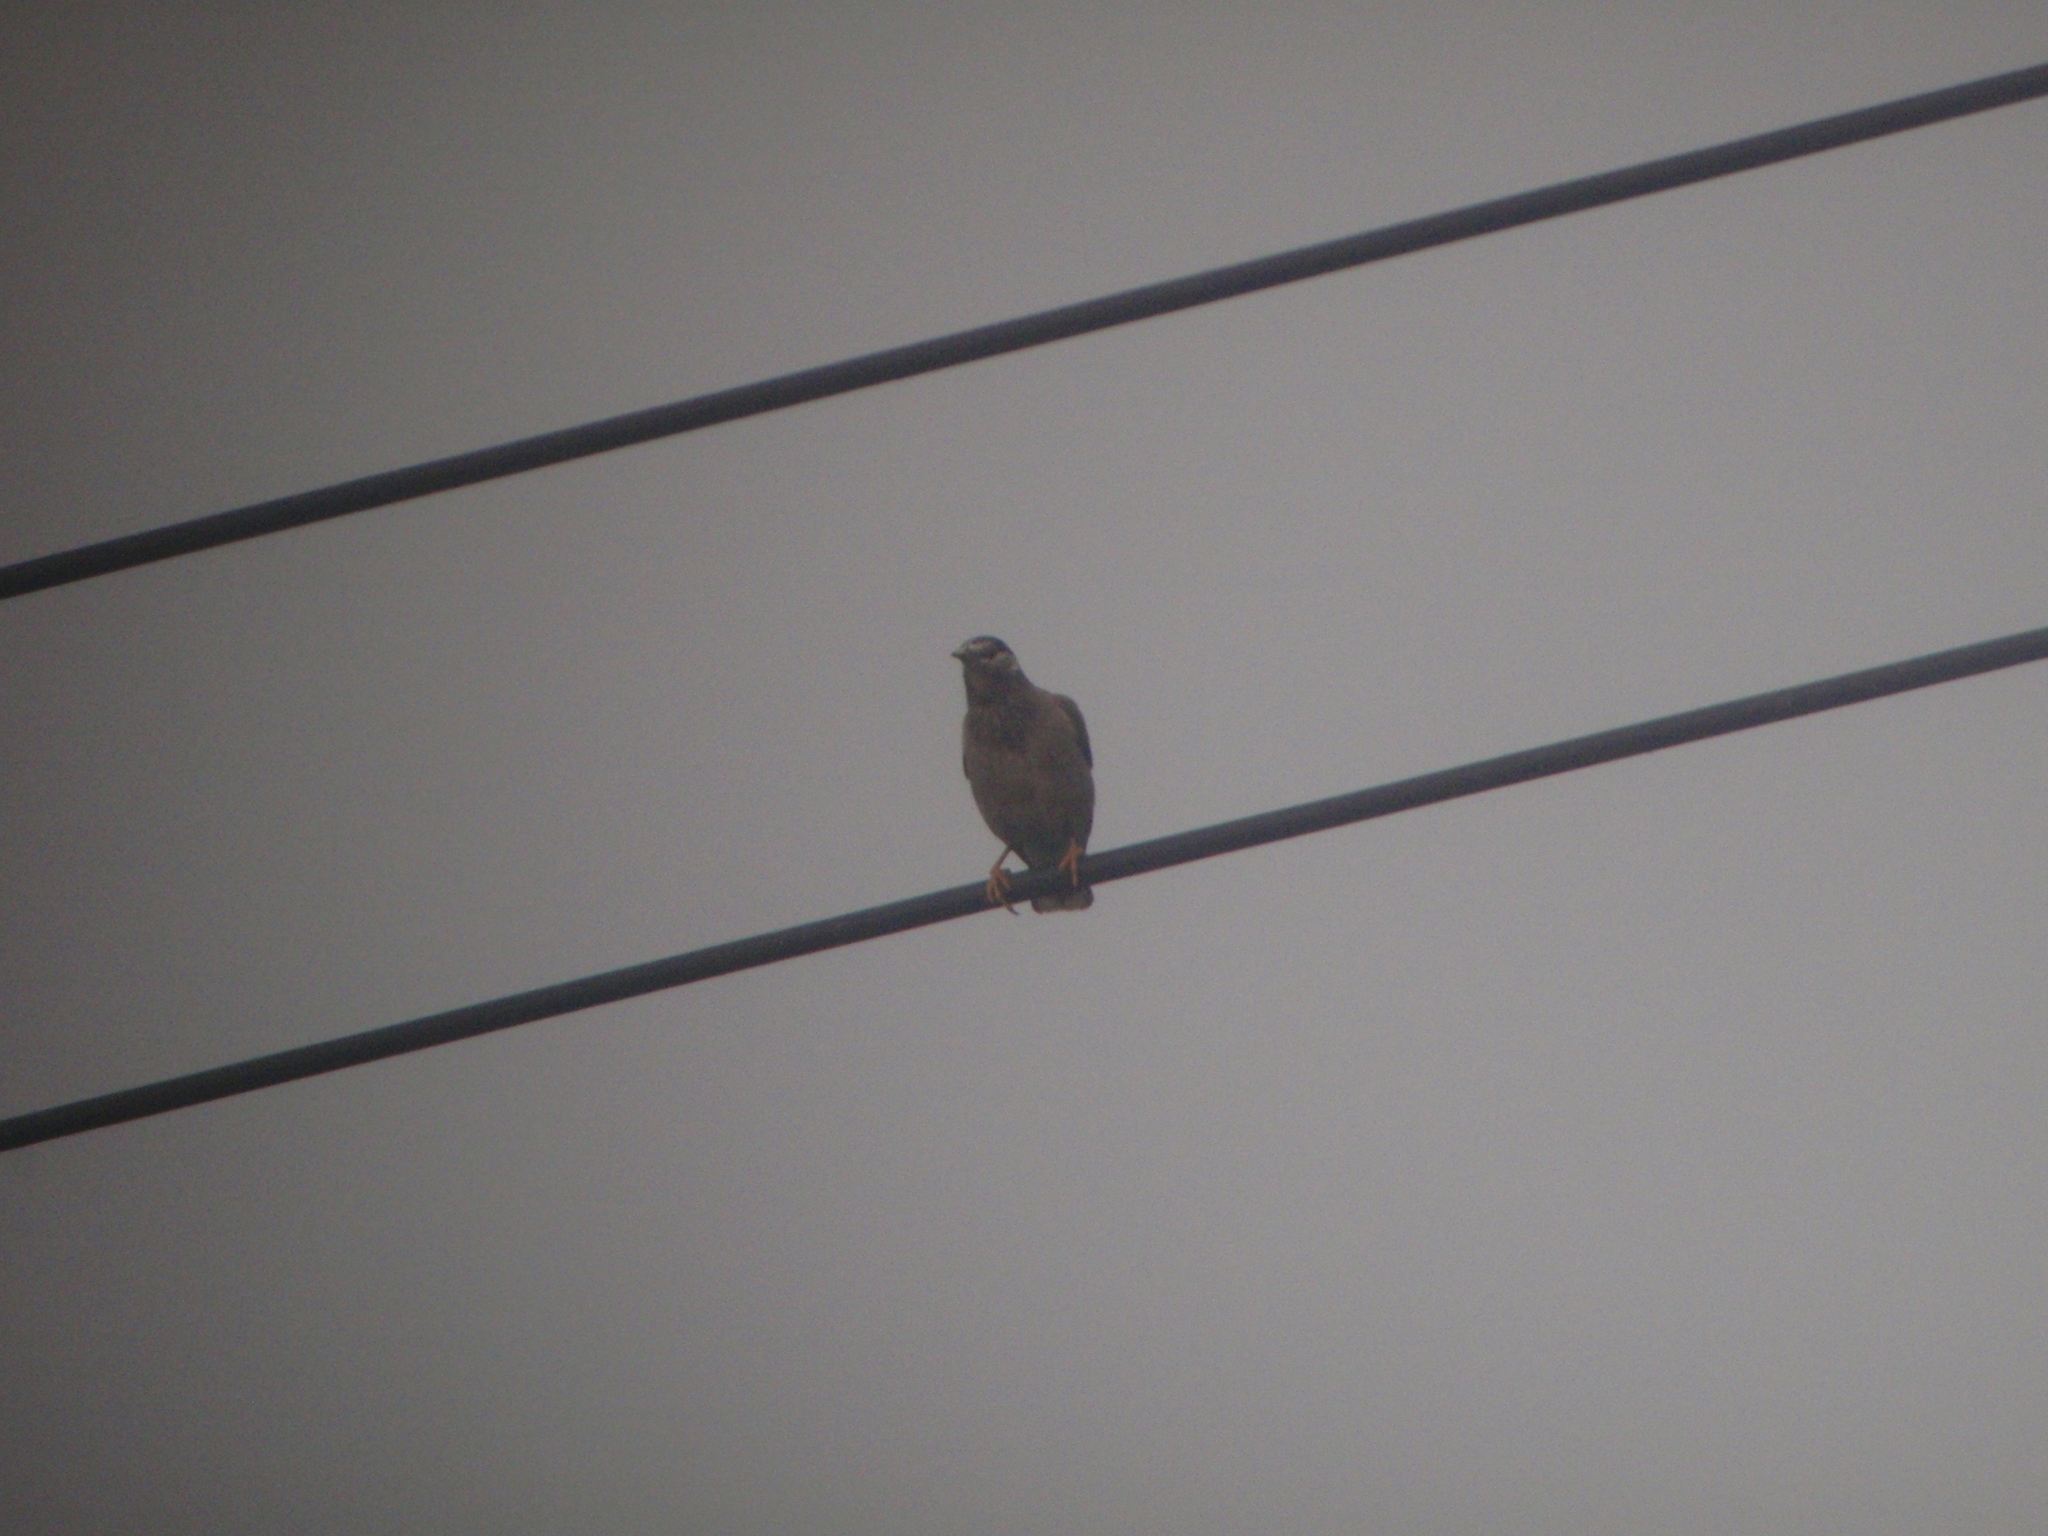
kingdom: Animalia
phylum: Chordata
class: Aves
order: Passeriformes
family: Sturnidae
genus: Spodiopsar
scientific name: Spodiopsar cineraceus
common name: White-cheeked starling
